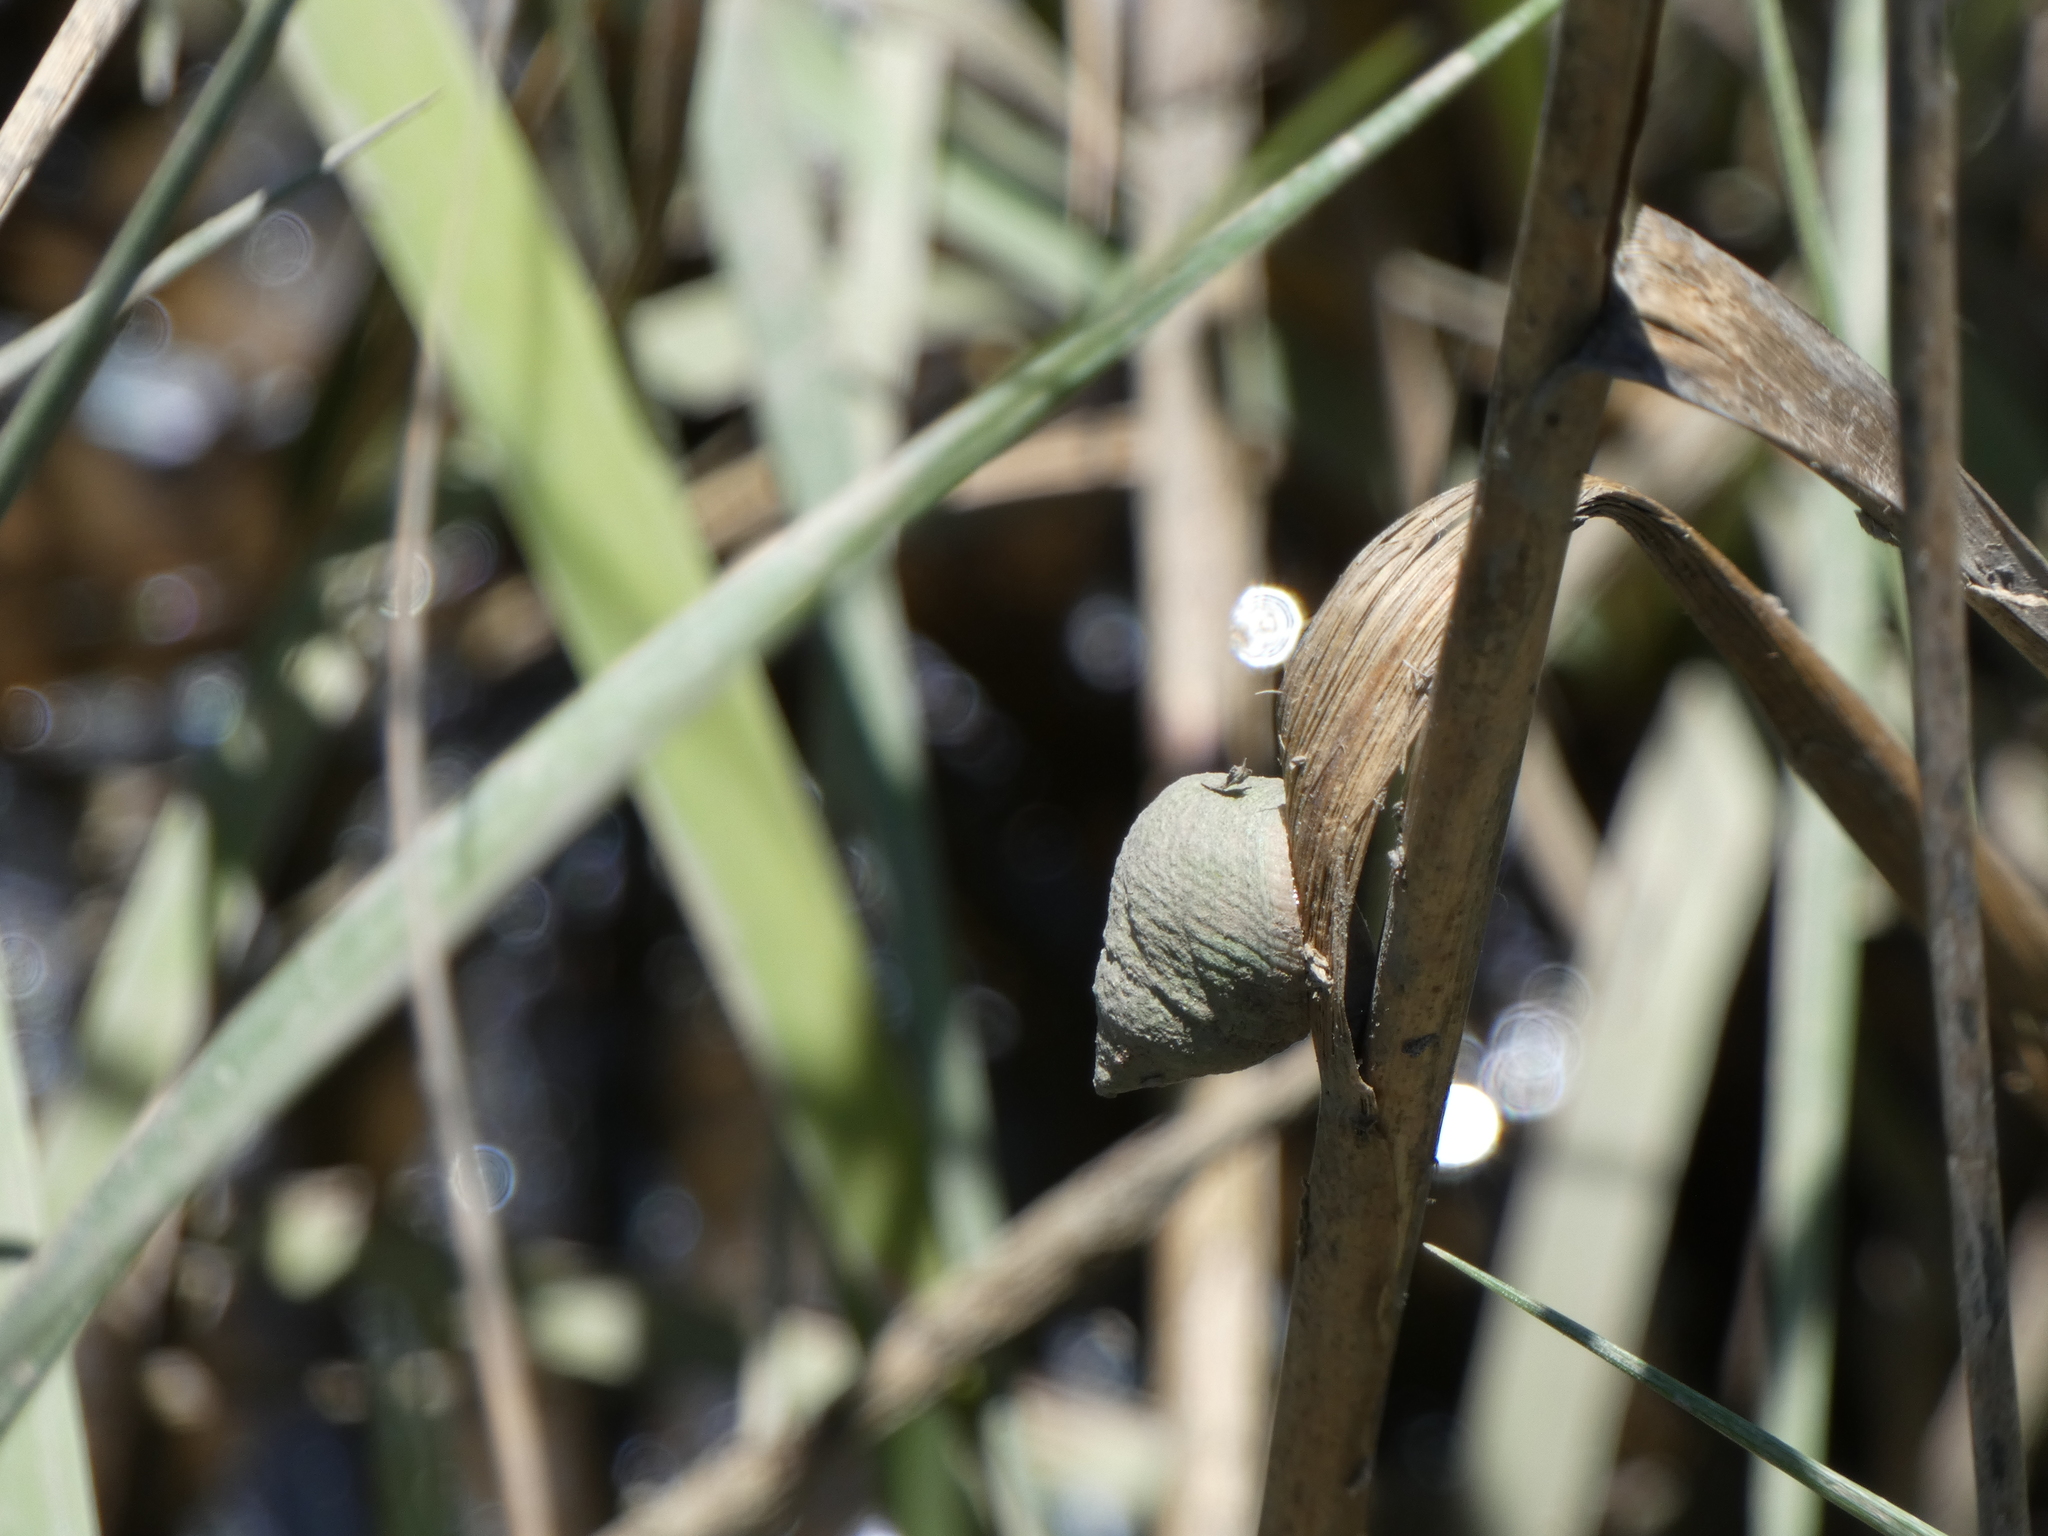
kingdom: Animalia
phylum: Mollusca
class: Gastropoda
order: Littorinimorpha
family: Littorinidae
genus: Littoraria
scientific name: Littoraria irrorata
